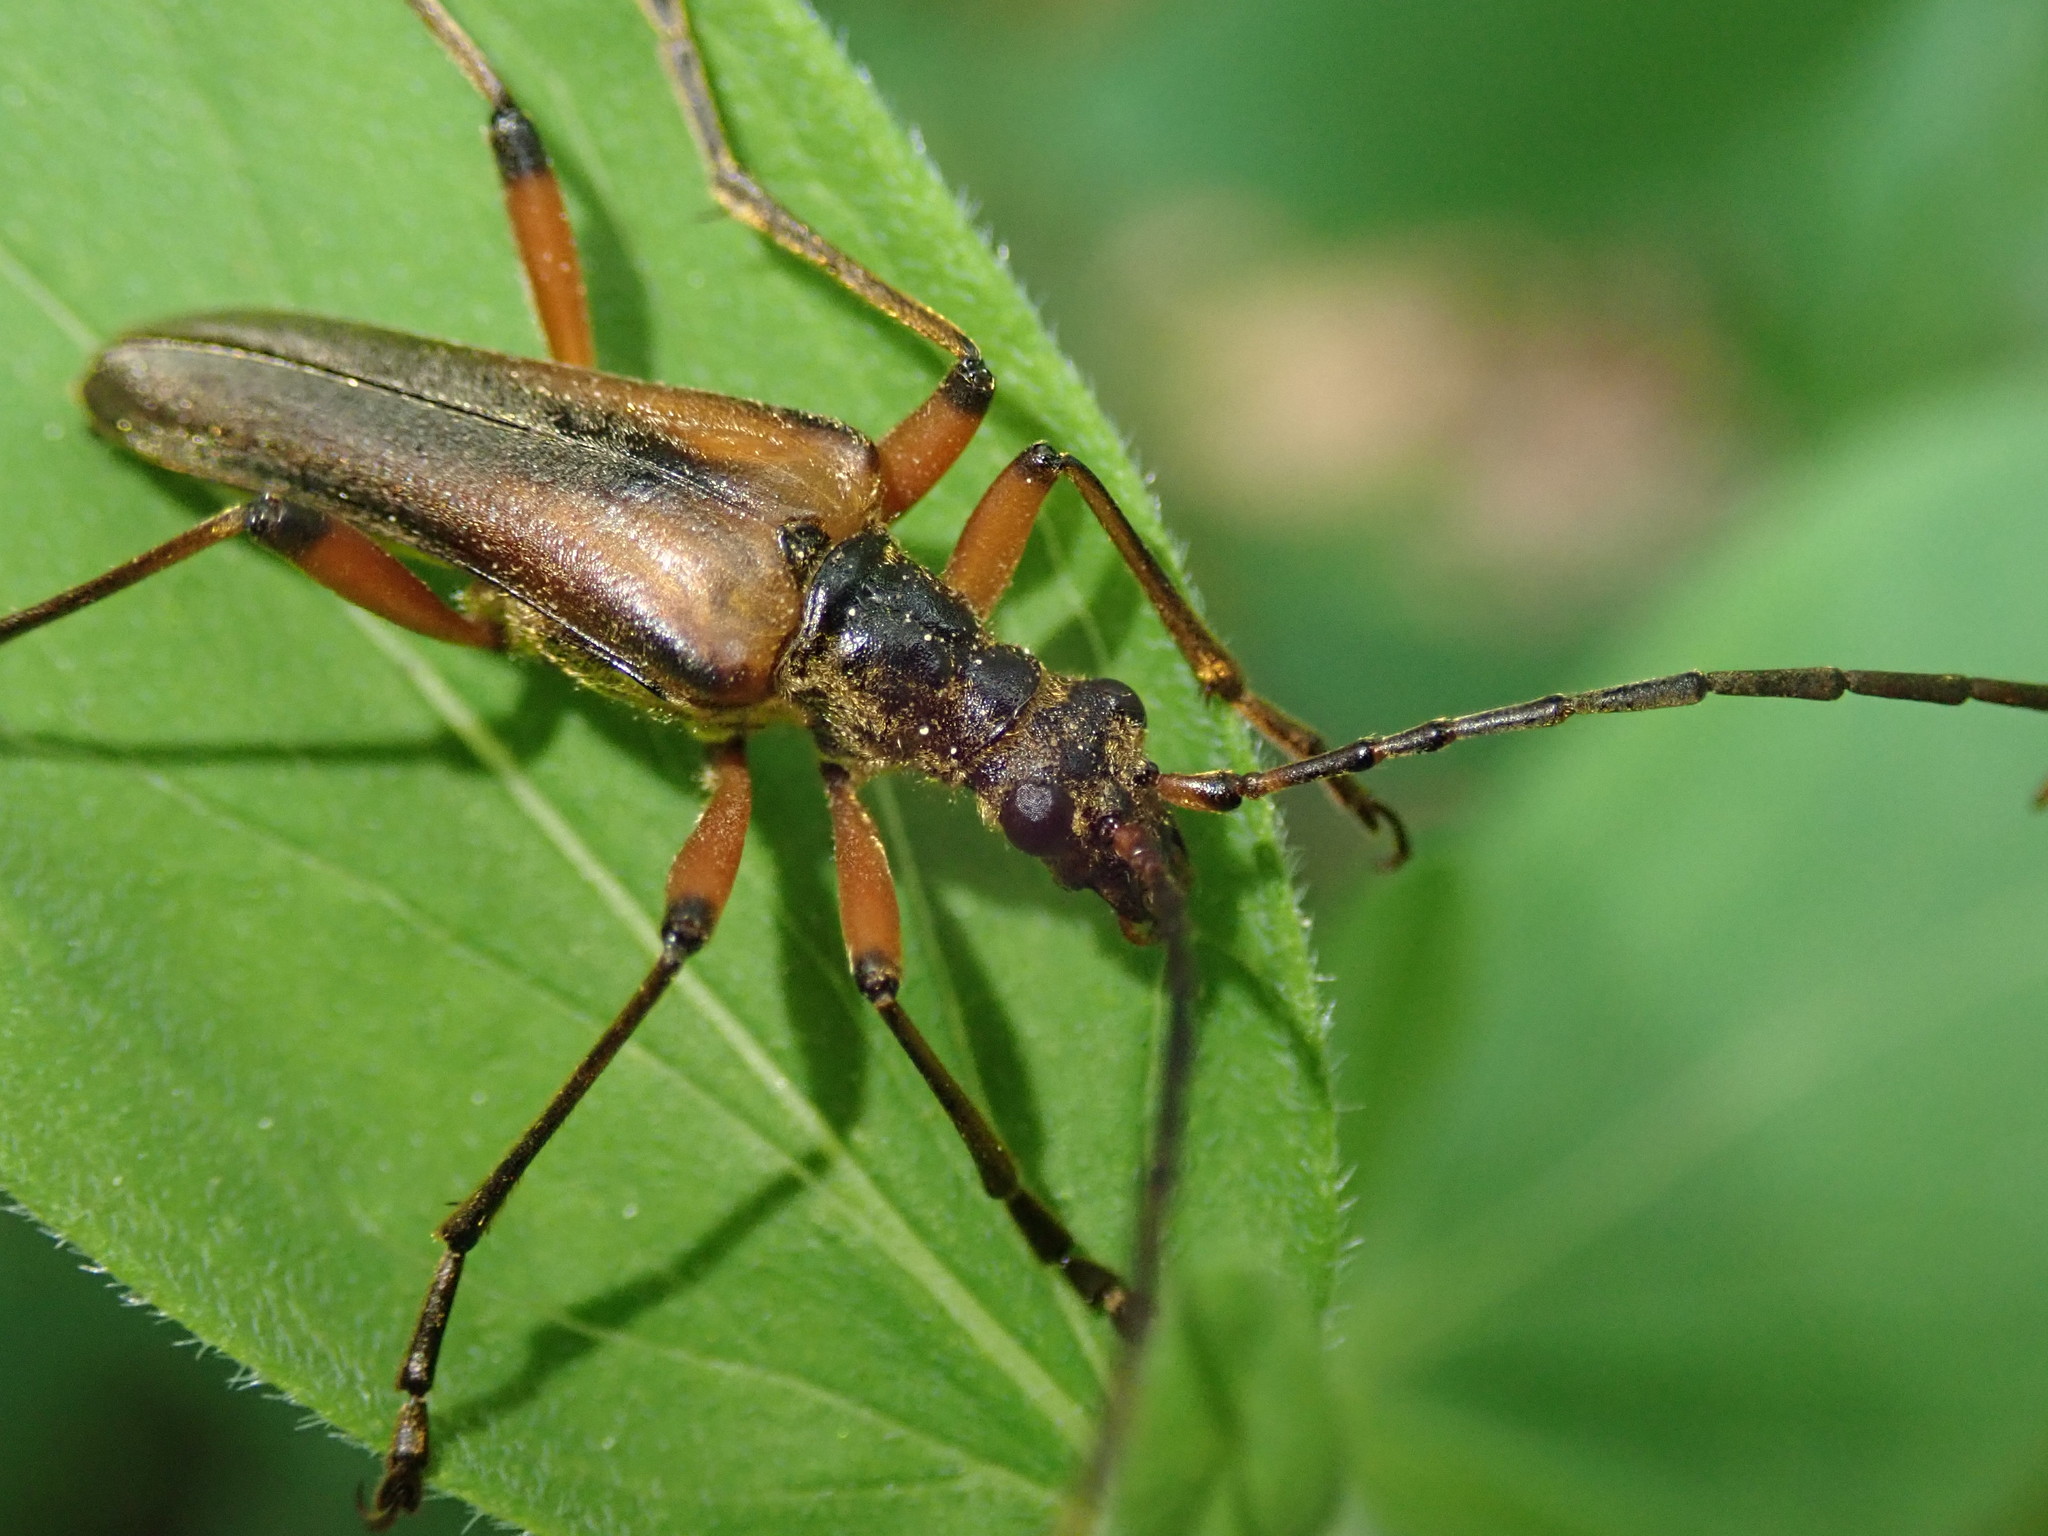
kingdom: Animalia
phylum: Arthropoda
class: Insecta
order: Coleoptera
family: Cerambycidae
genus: Stenocorus
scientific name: Stenocorus meridianus
